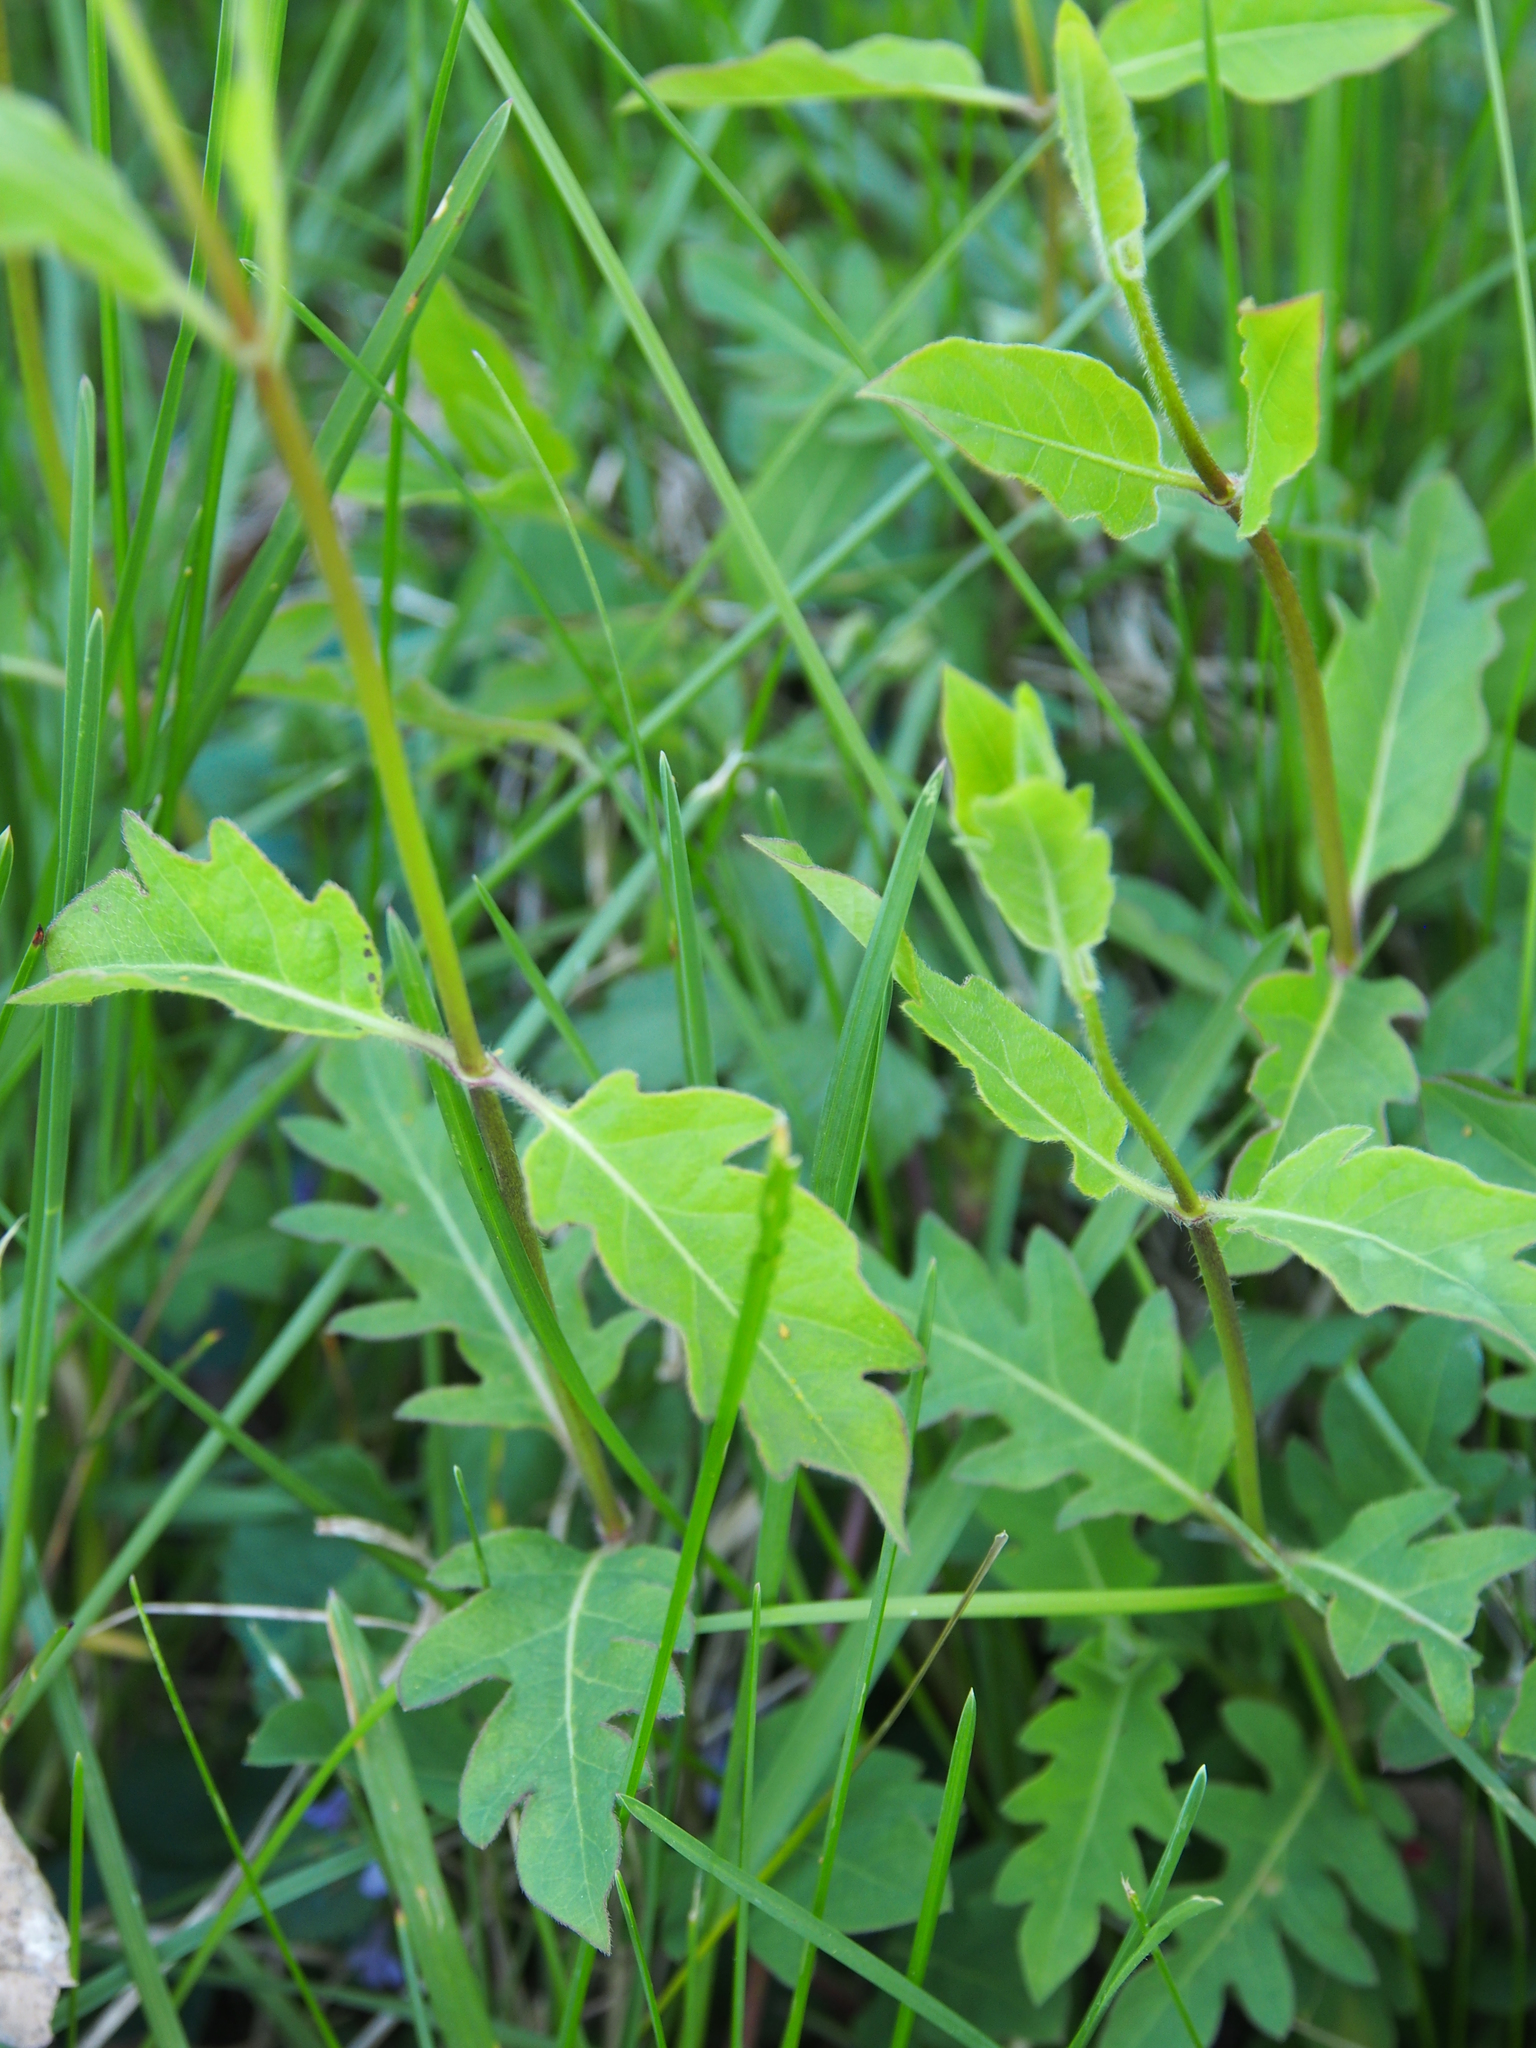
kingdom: Plantae
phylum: Tracheophyta
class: Magnoliopsida
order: Dipsacales
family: Caprifoliaceae
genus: Lonicera
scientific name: Lonicera japonica
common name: Japanese honeysuckle
